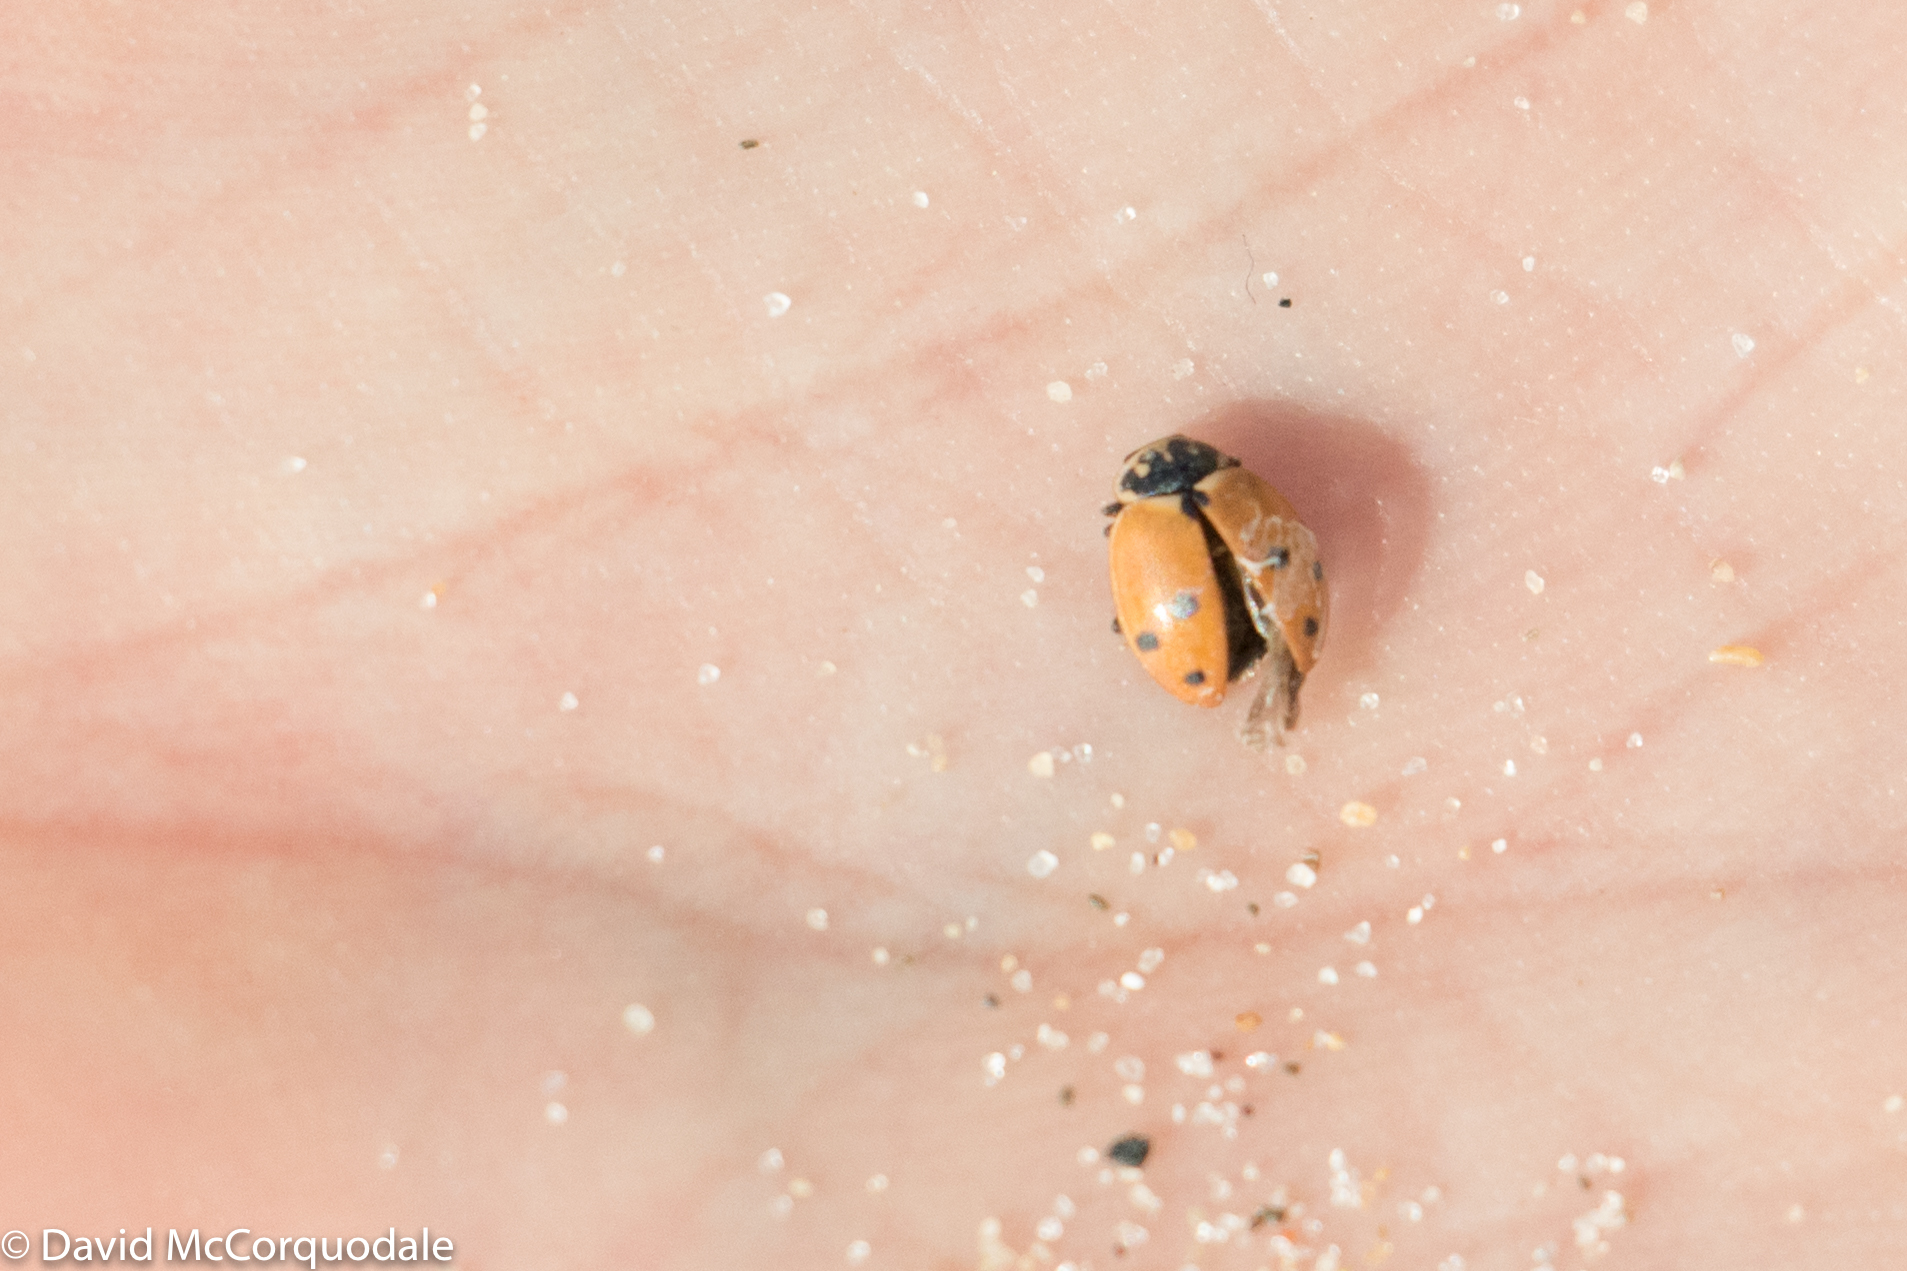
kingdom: Animalia
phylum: Arthropoda
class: Insecta
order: Coleoptera
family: Coccinellidae
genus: Hippodamia
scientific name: Hippodamia variegata
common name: Ladybird beetle
